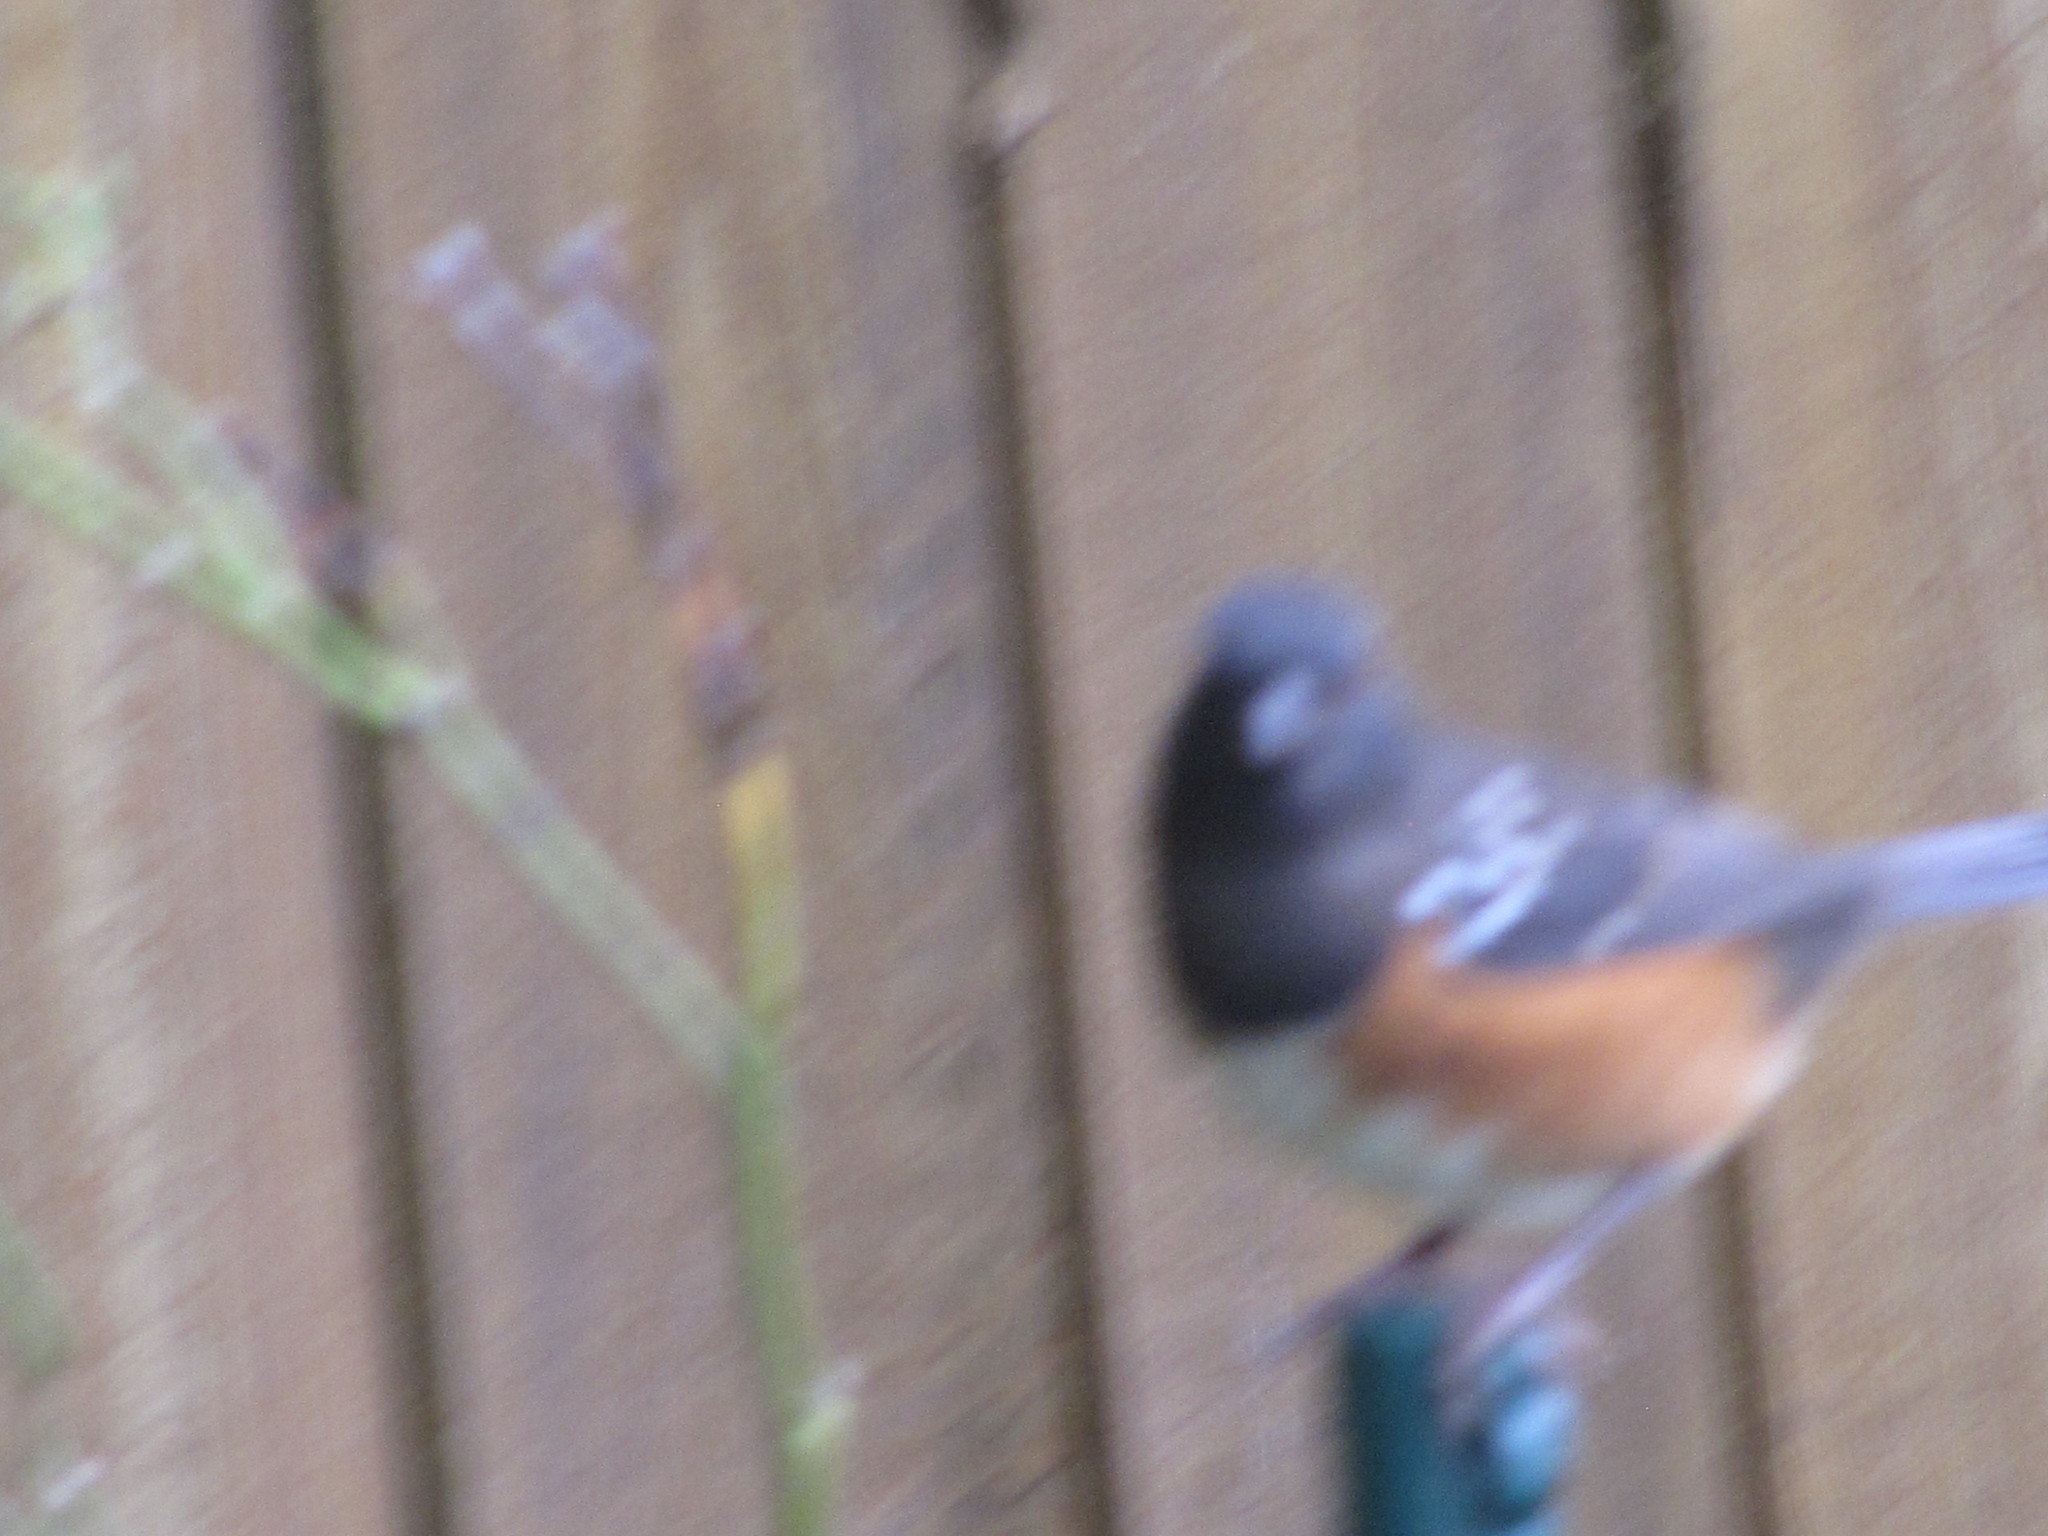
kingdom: Animalia
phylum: Chordata
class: Aves
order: Passeriformes
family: Passerellidae
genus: Pipilo
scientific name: Pipilo maculatus
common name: Spotted towhee
